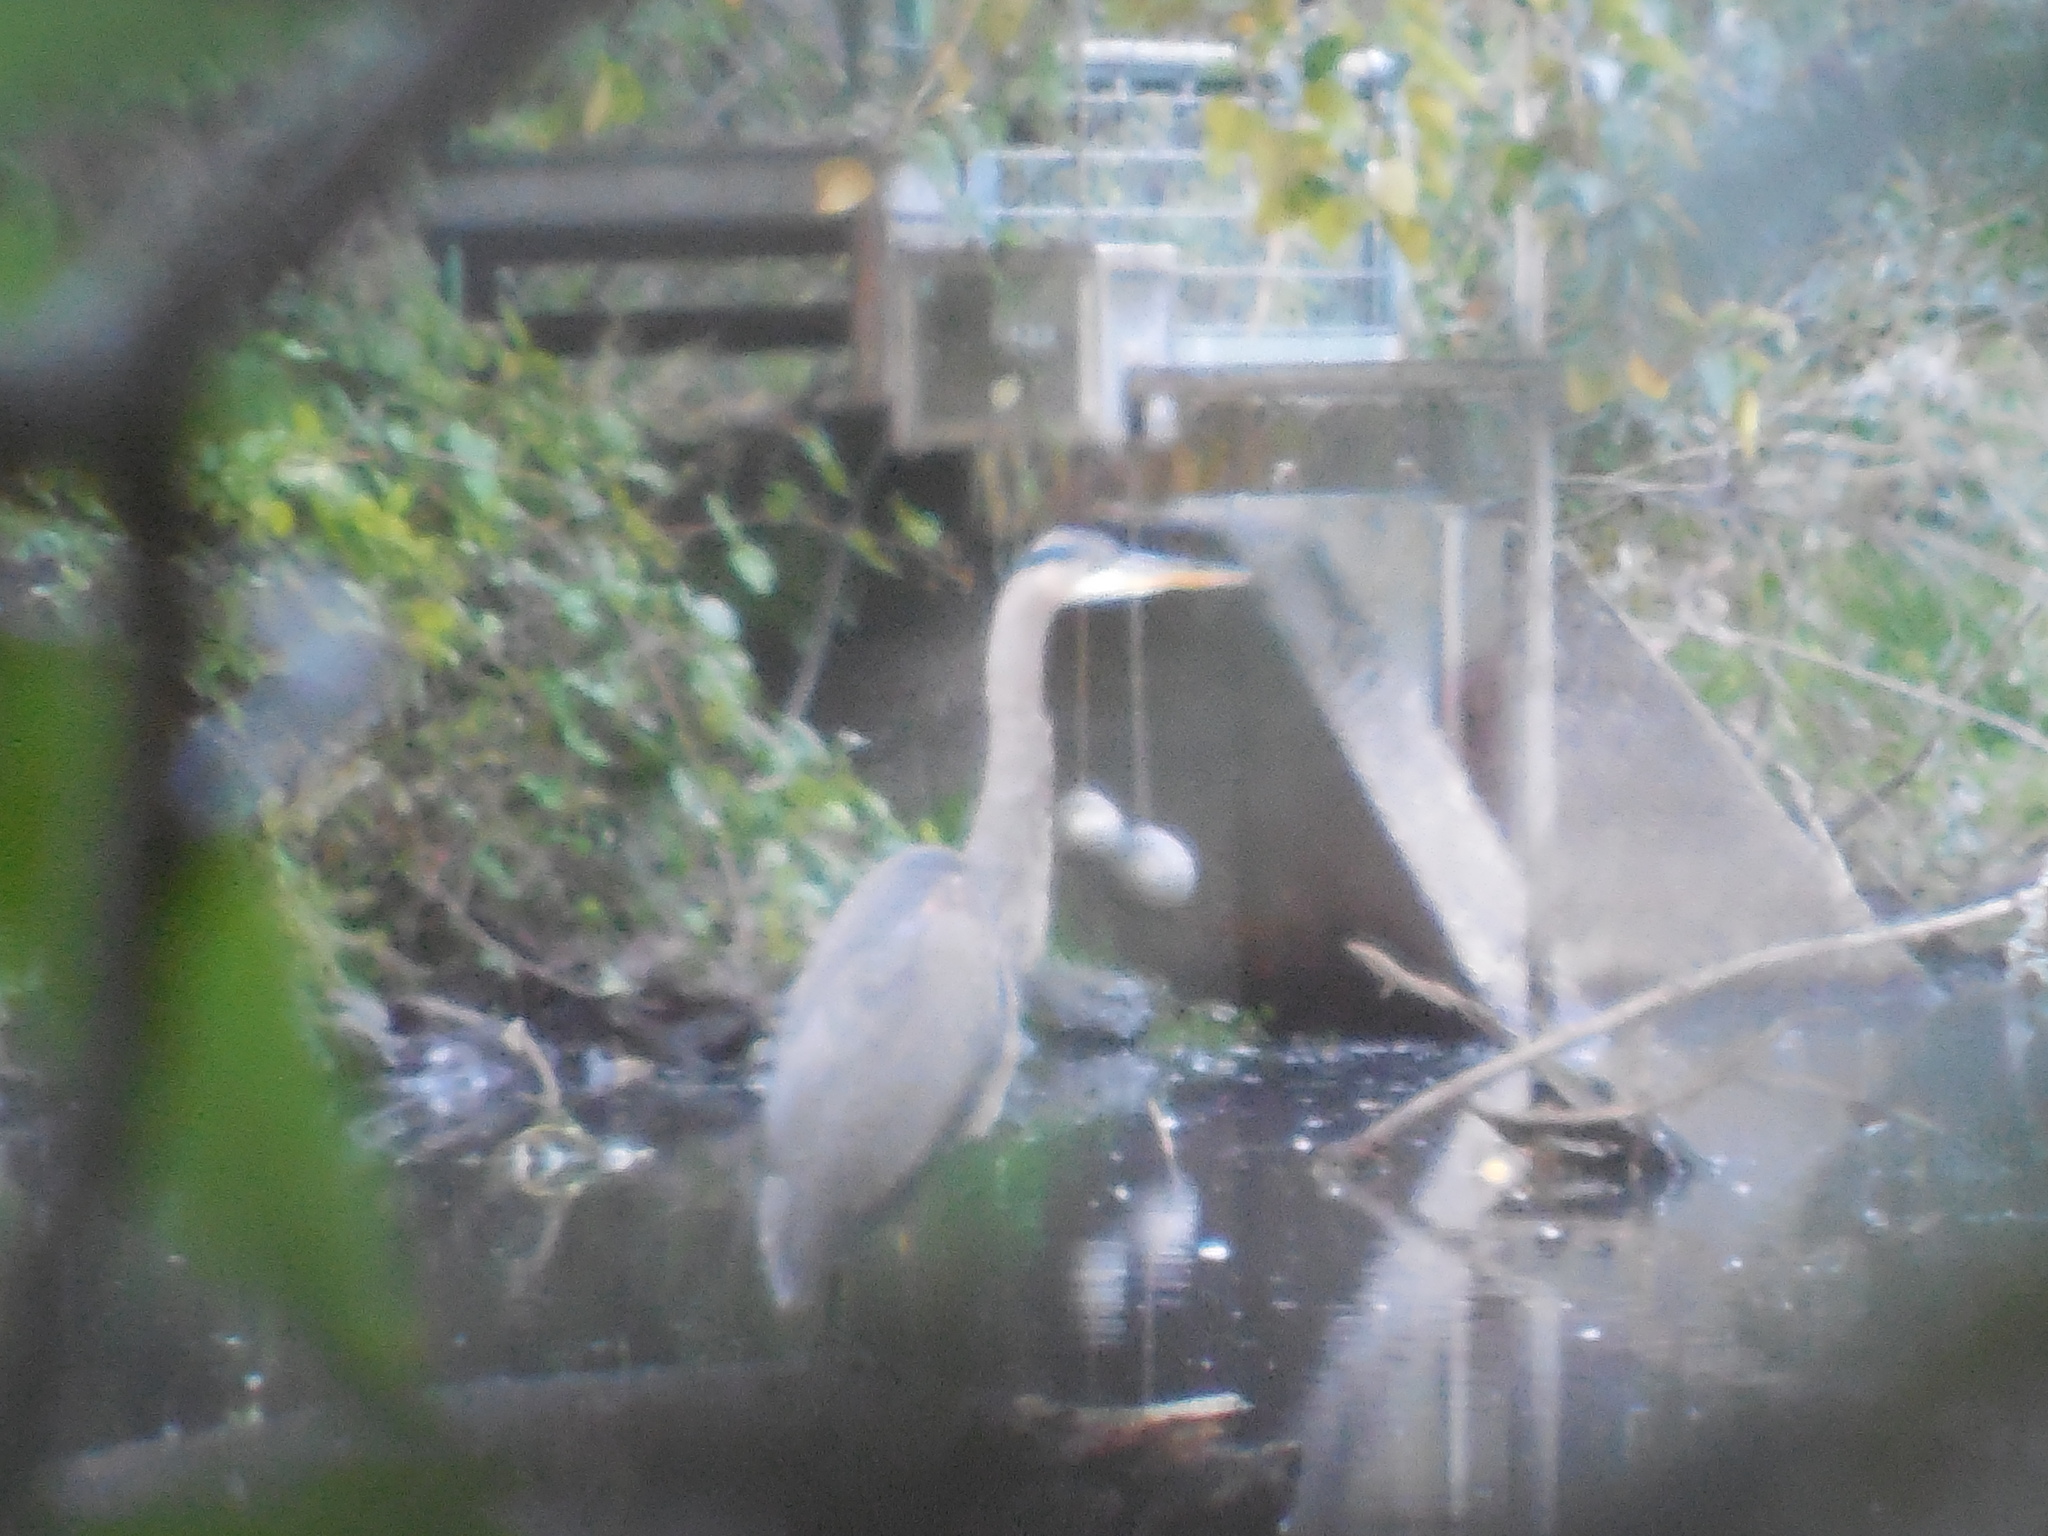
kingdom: Animalia
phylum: Chordata
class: Aves
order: Pelecaniformes
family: Ardeidae
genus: Ardea
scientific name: Ardea herodias
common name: Great blue heron
